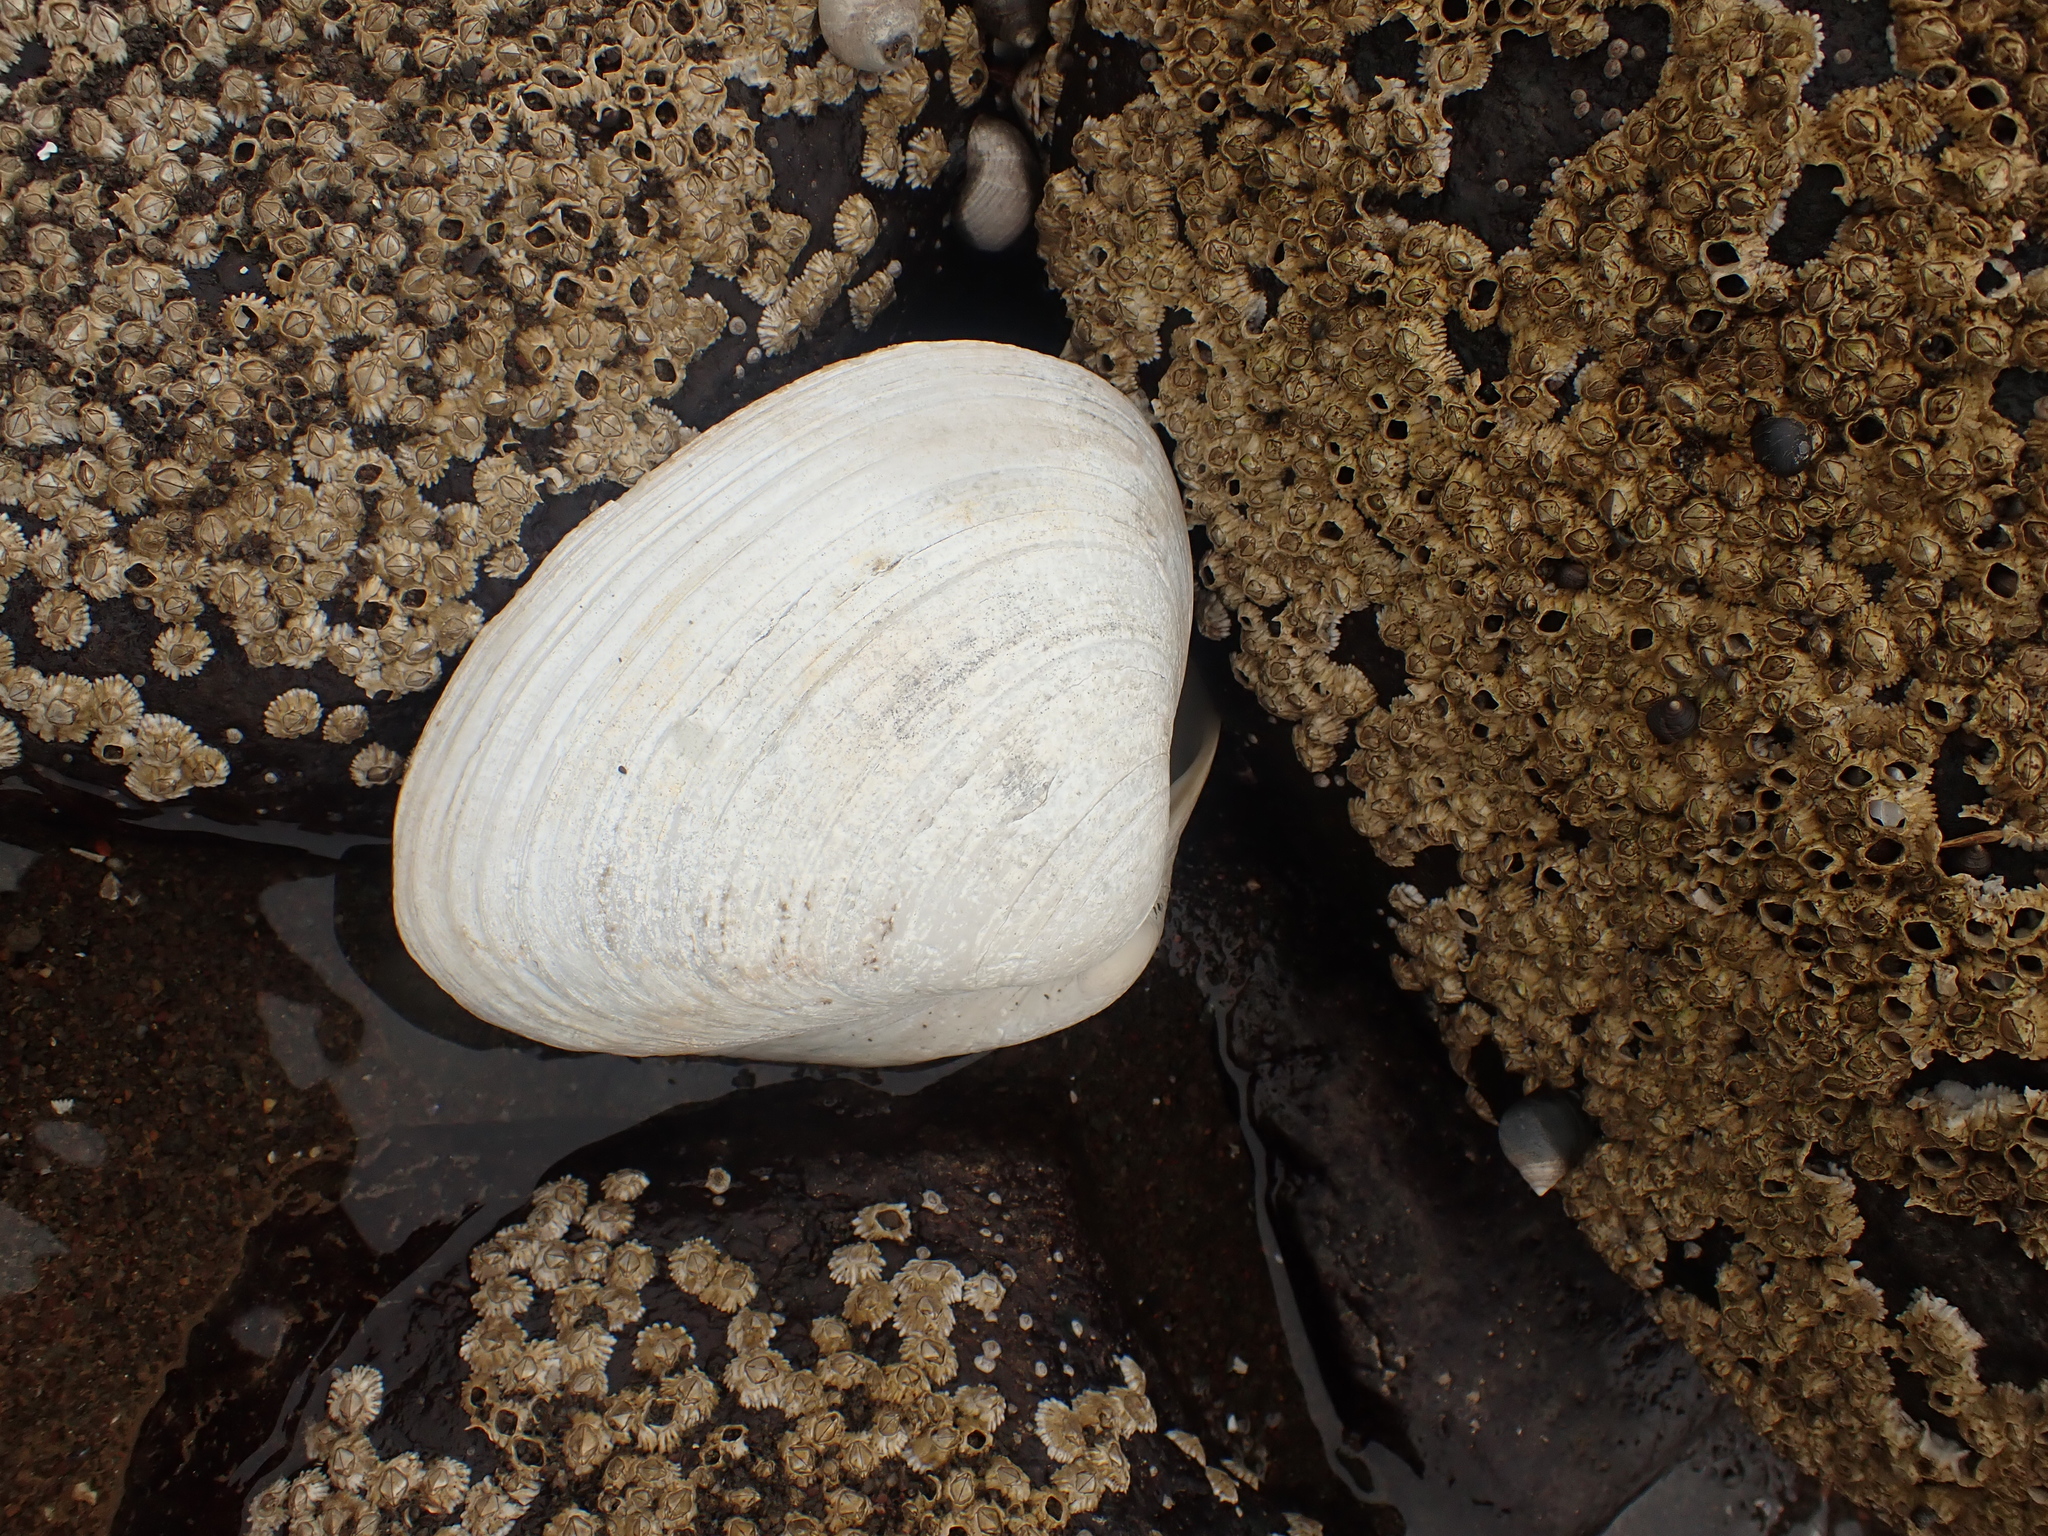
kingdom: Animalia
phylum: Mollusca
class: Bivalvia
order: Venerida
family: Mactridae
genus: Spisula
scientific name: Spisula solidissima
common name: Atlantic surf clam
